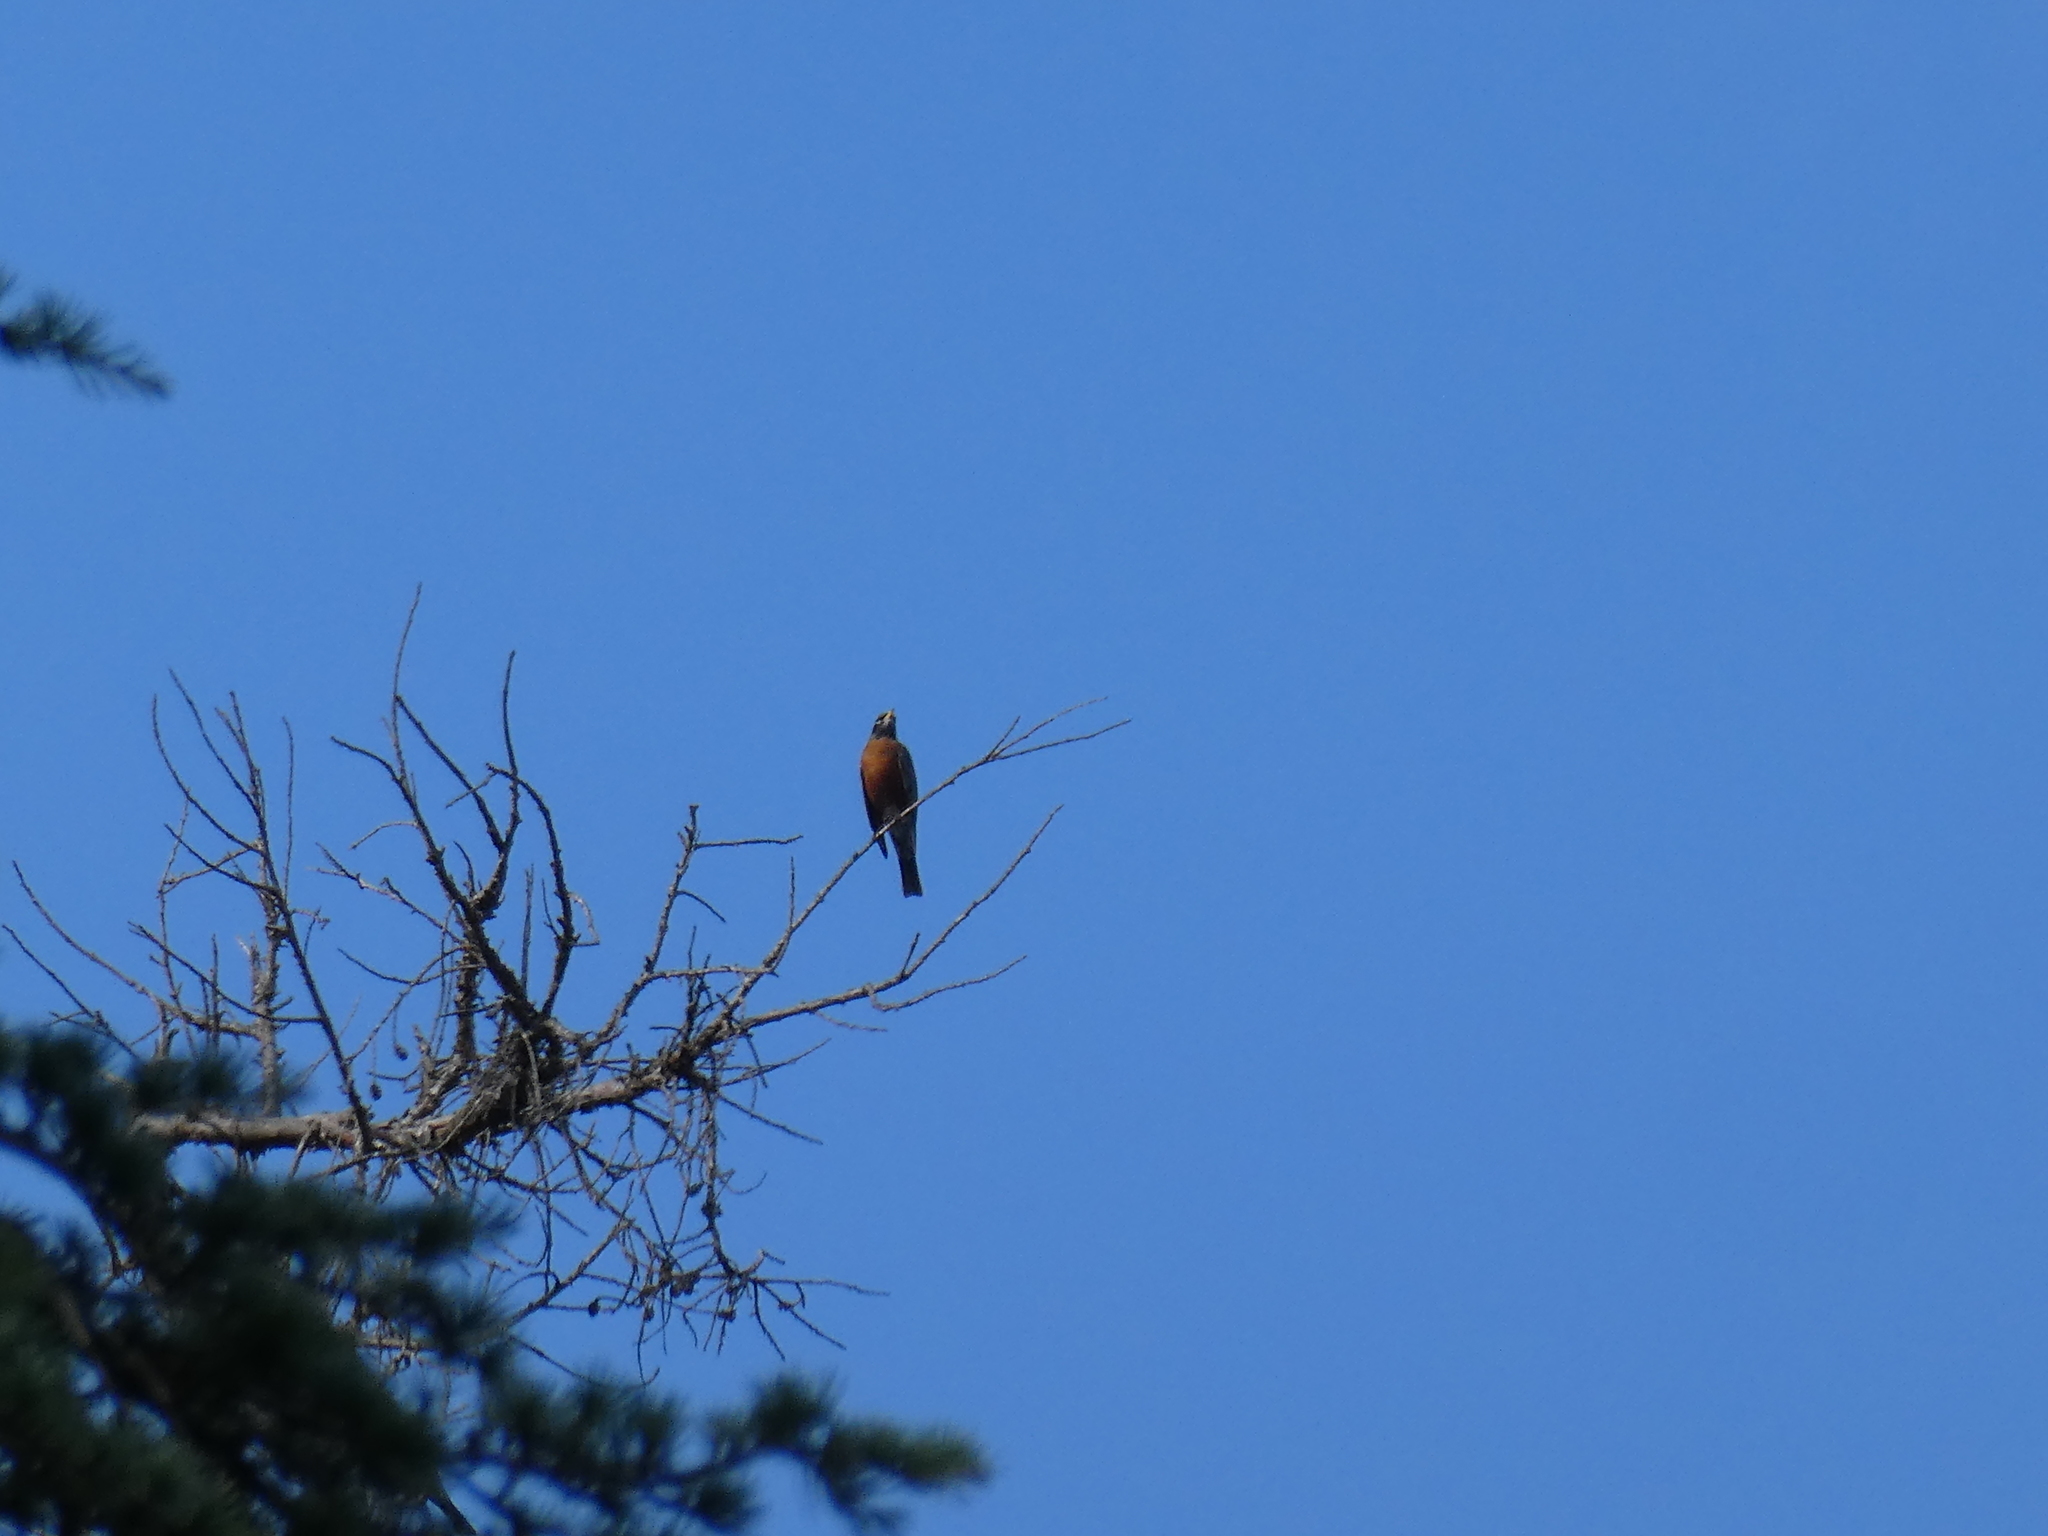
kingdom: Animalia
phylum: Chordata
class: Aves
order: Passeriformes
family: Turdidae
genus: Turdus
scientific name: Turdus migratorius
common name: American robin
